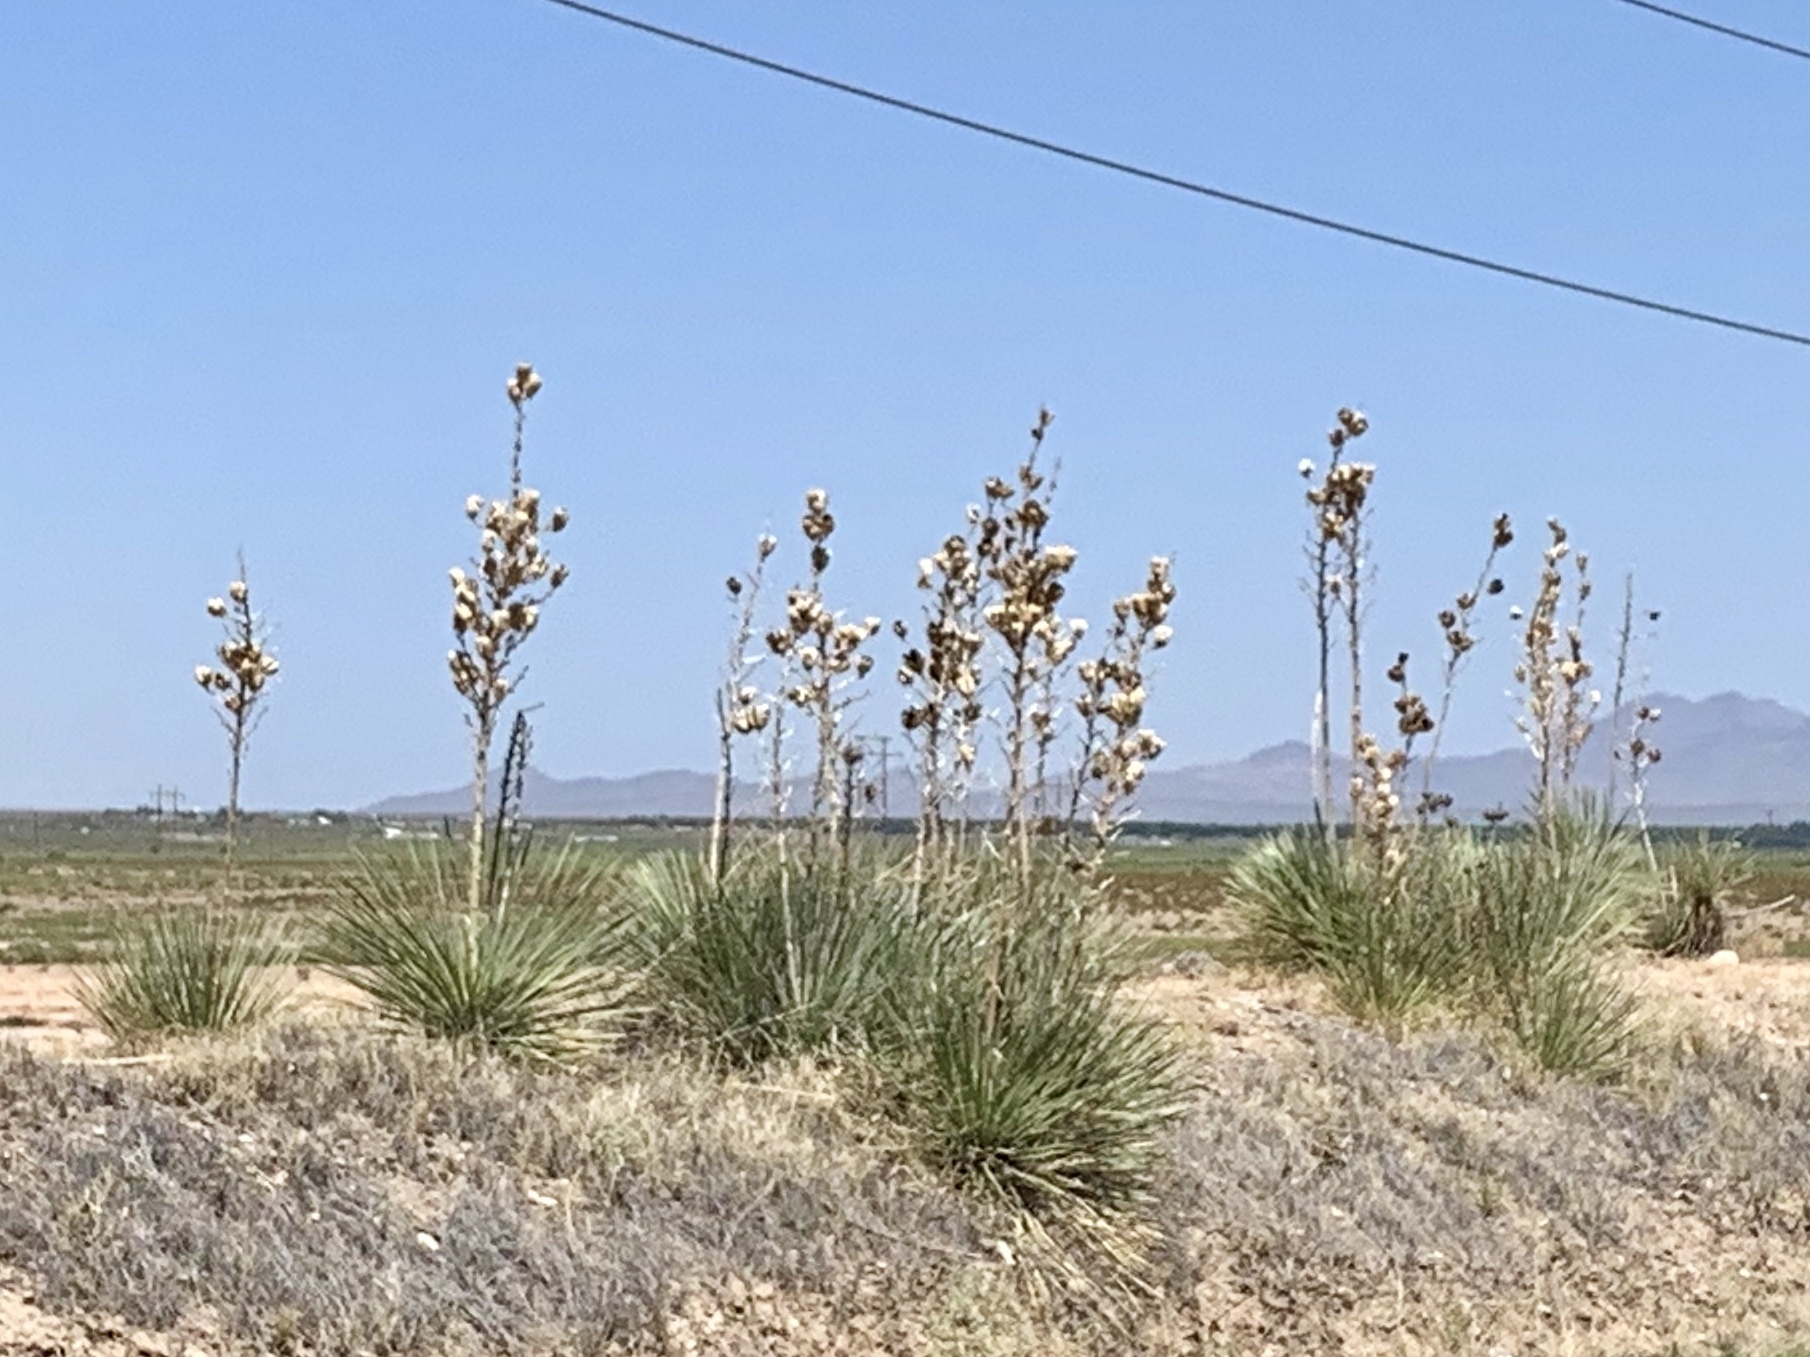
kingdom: Plantae
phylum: Tracheophyta
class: Liliopsida
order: Asparagales
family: Asparagaceae
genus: Yucca
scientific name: Yucca elata
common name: Palmella
